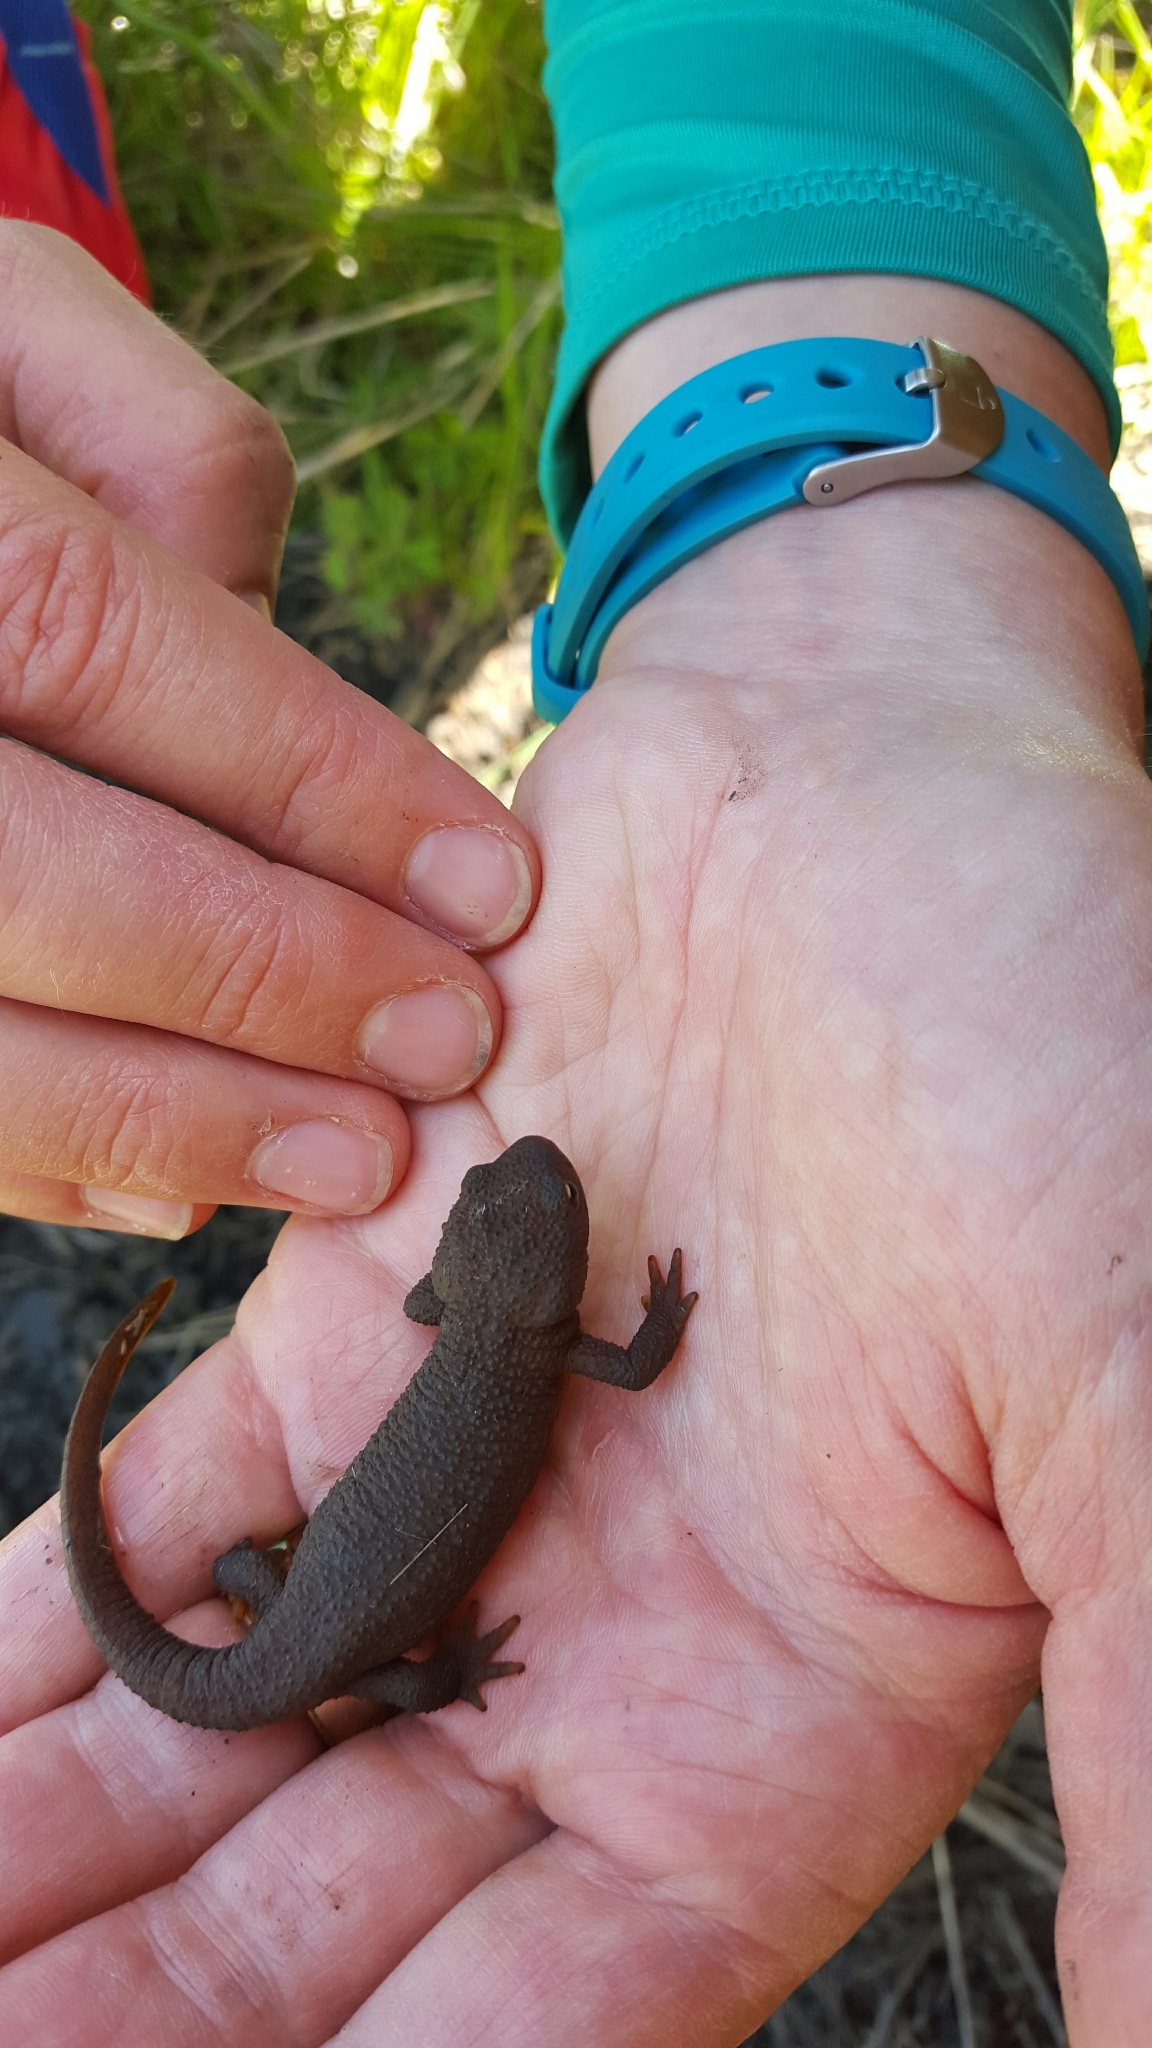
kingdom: Animalia
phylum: Chordata
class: Amphibia
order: Caudata
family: Salamandridae
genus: Taricha
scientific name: Taricha granulosa
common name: Roughskin newt
